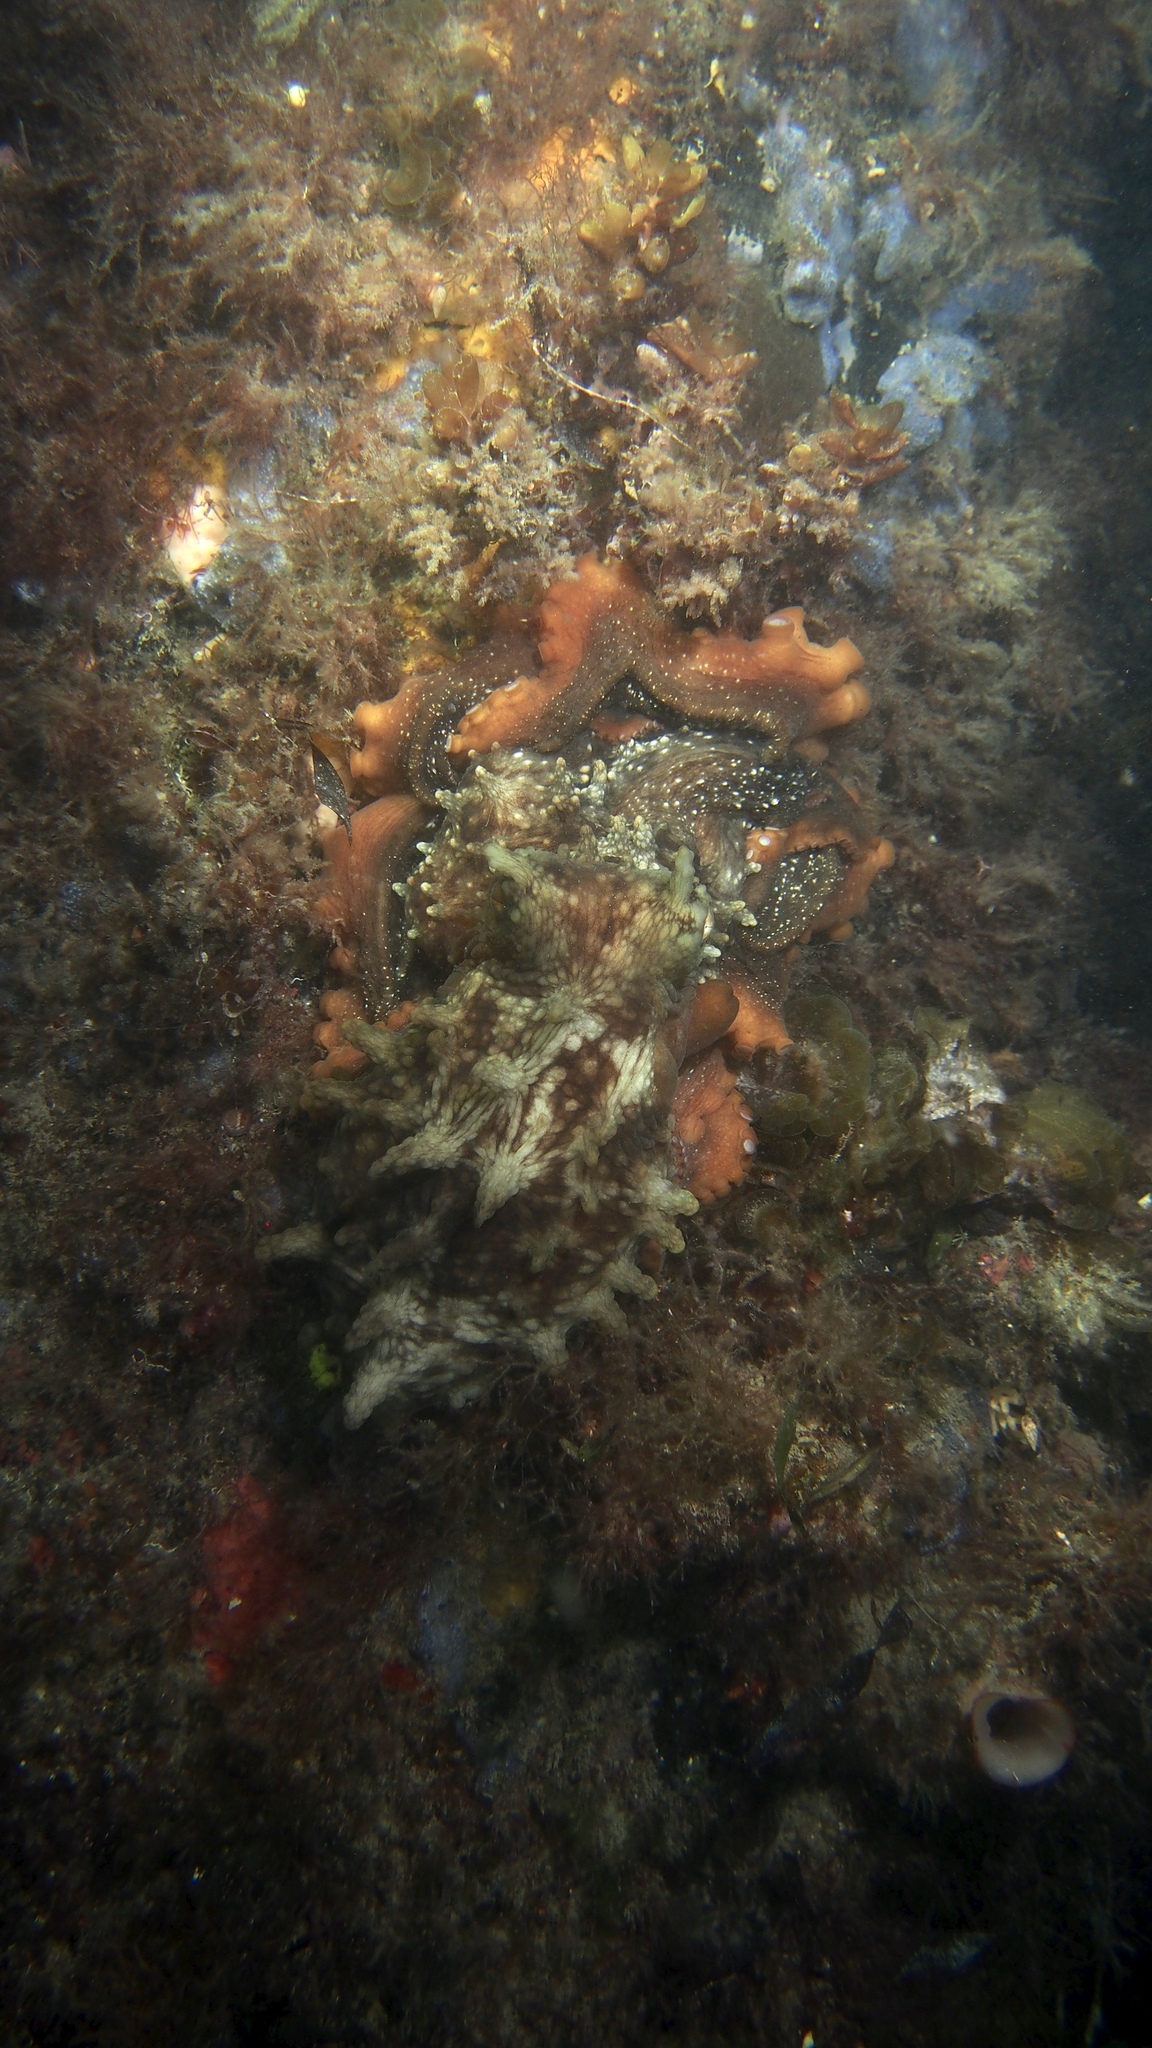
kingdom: Animalia
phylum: Mollusca
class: Cephalopoda
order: Octopoda
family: Octopodidae
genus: Macroctopus
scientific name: Macroctopus maorum
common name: Maori octopus
